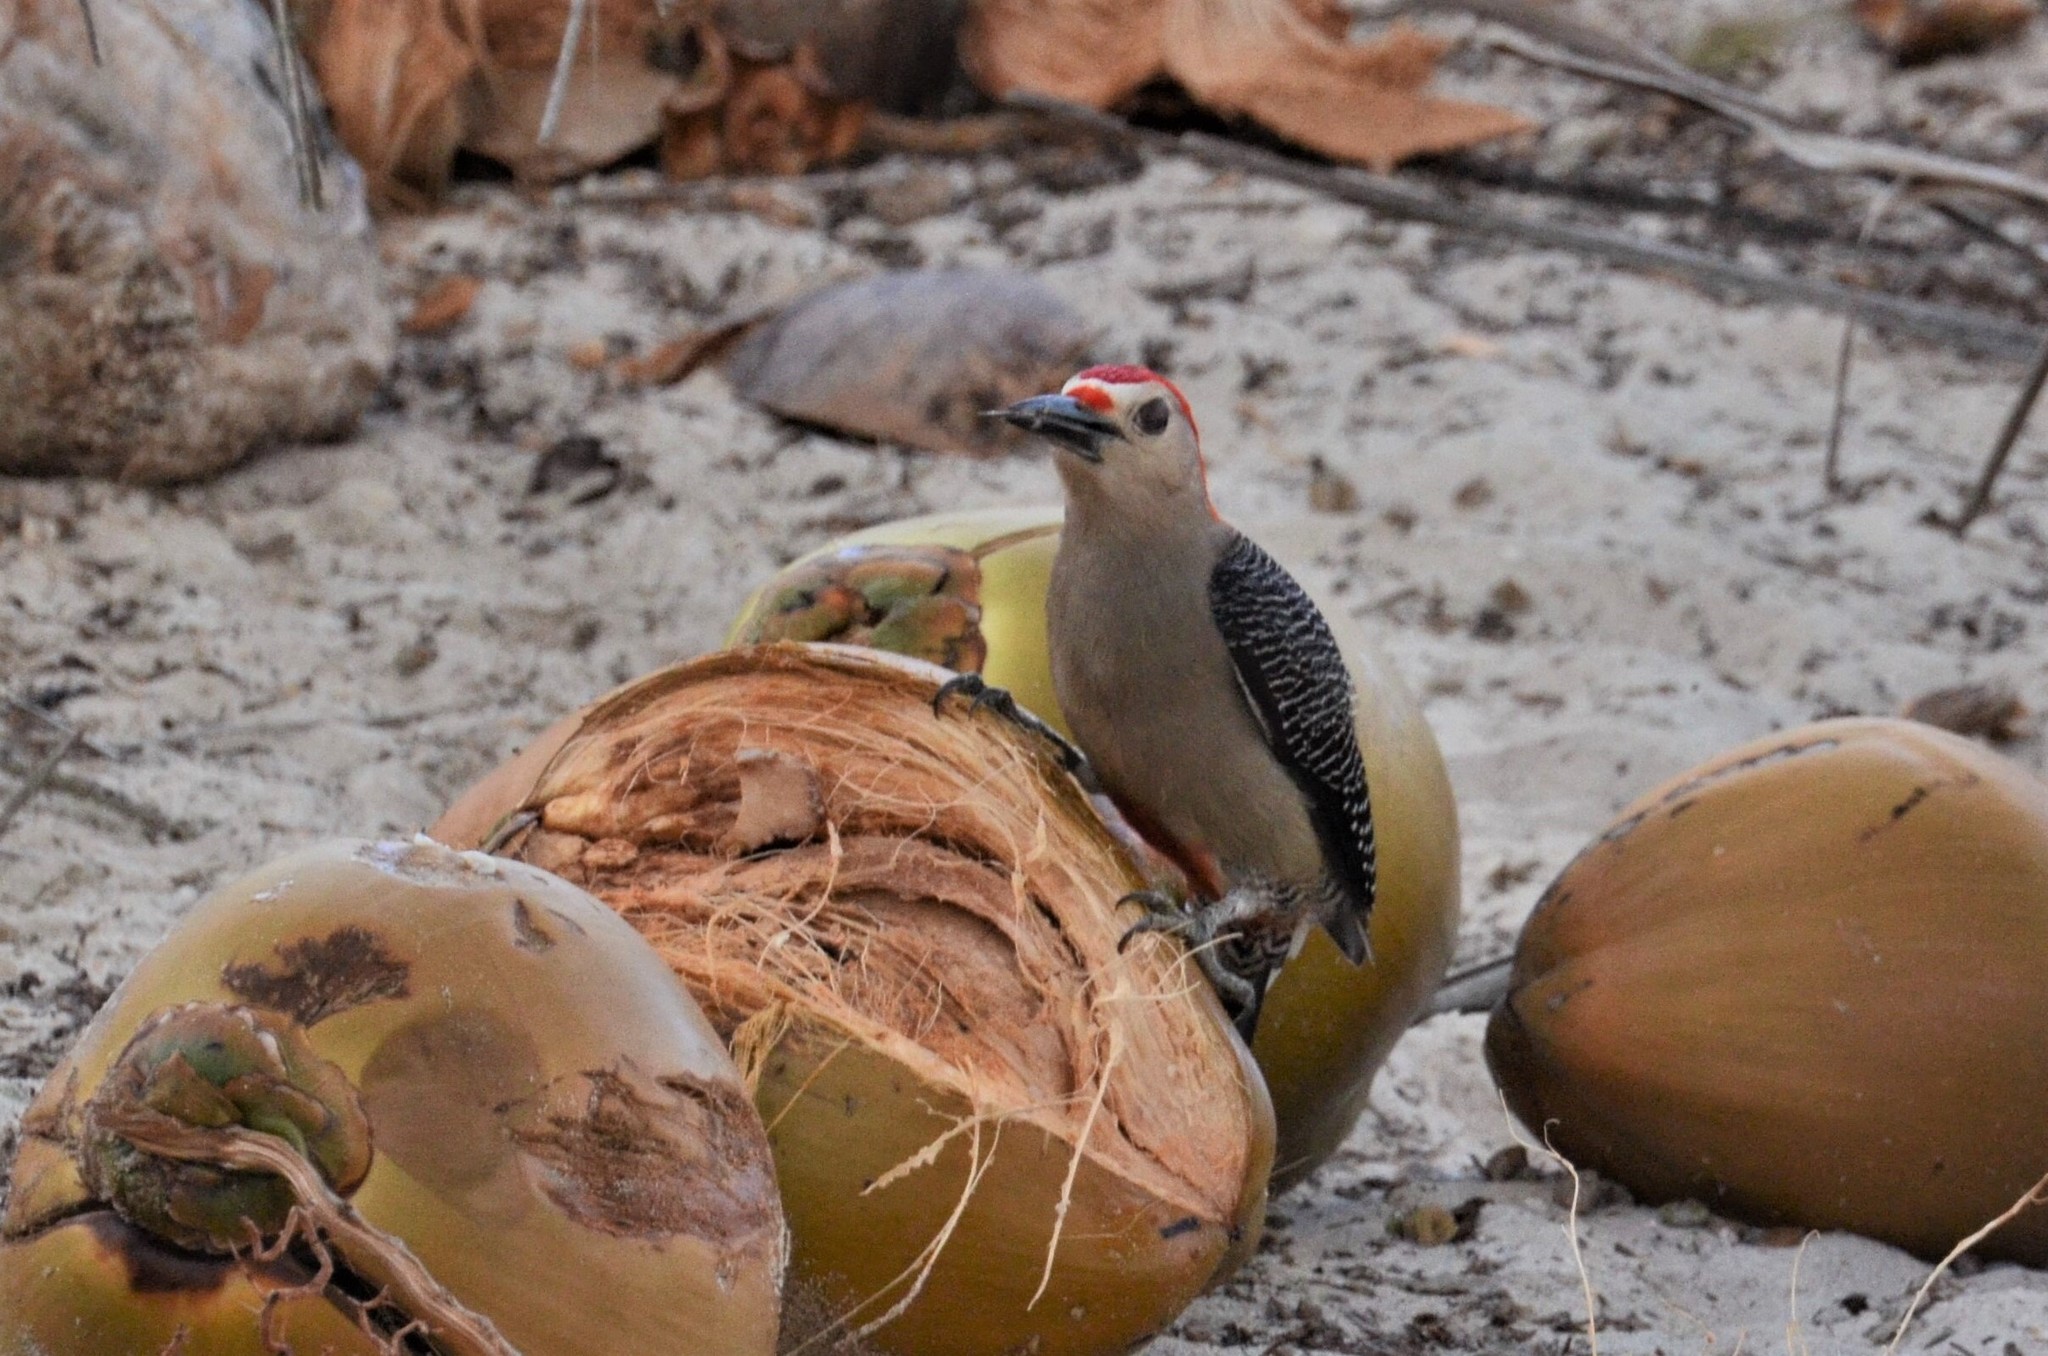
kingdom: Animalia
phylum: Chordata
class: Aves
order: Piciformes
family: Picidae
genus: Melanerpes
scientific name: Melanerpes aurifrons
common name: Golden-fronted woodpecker
